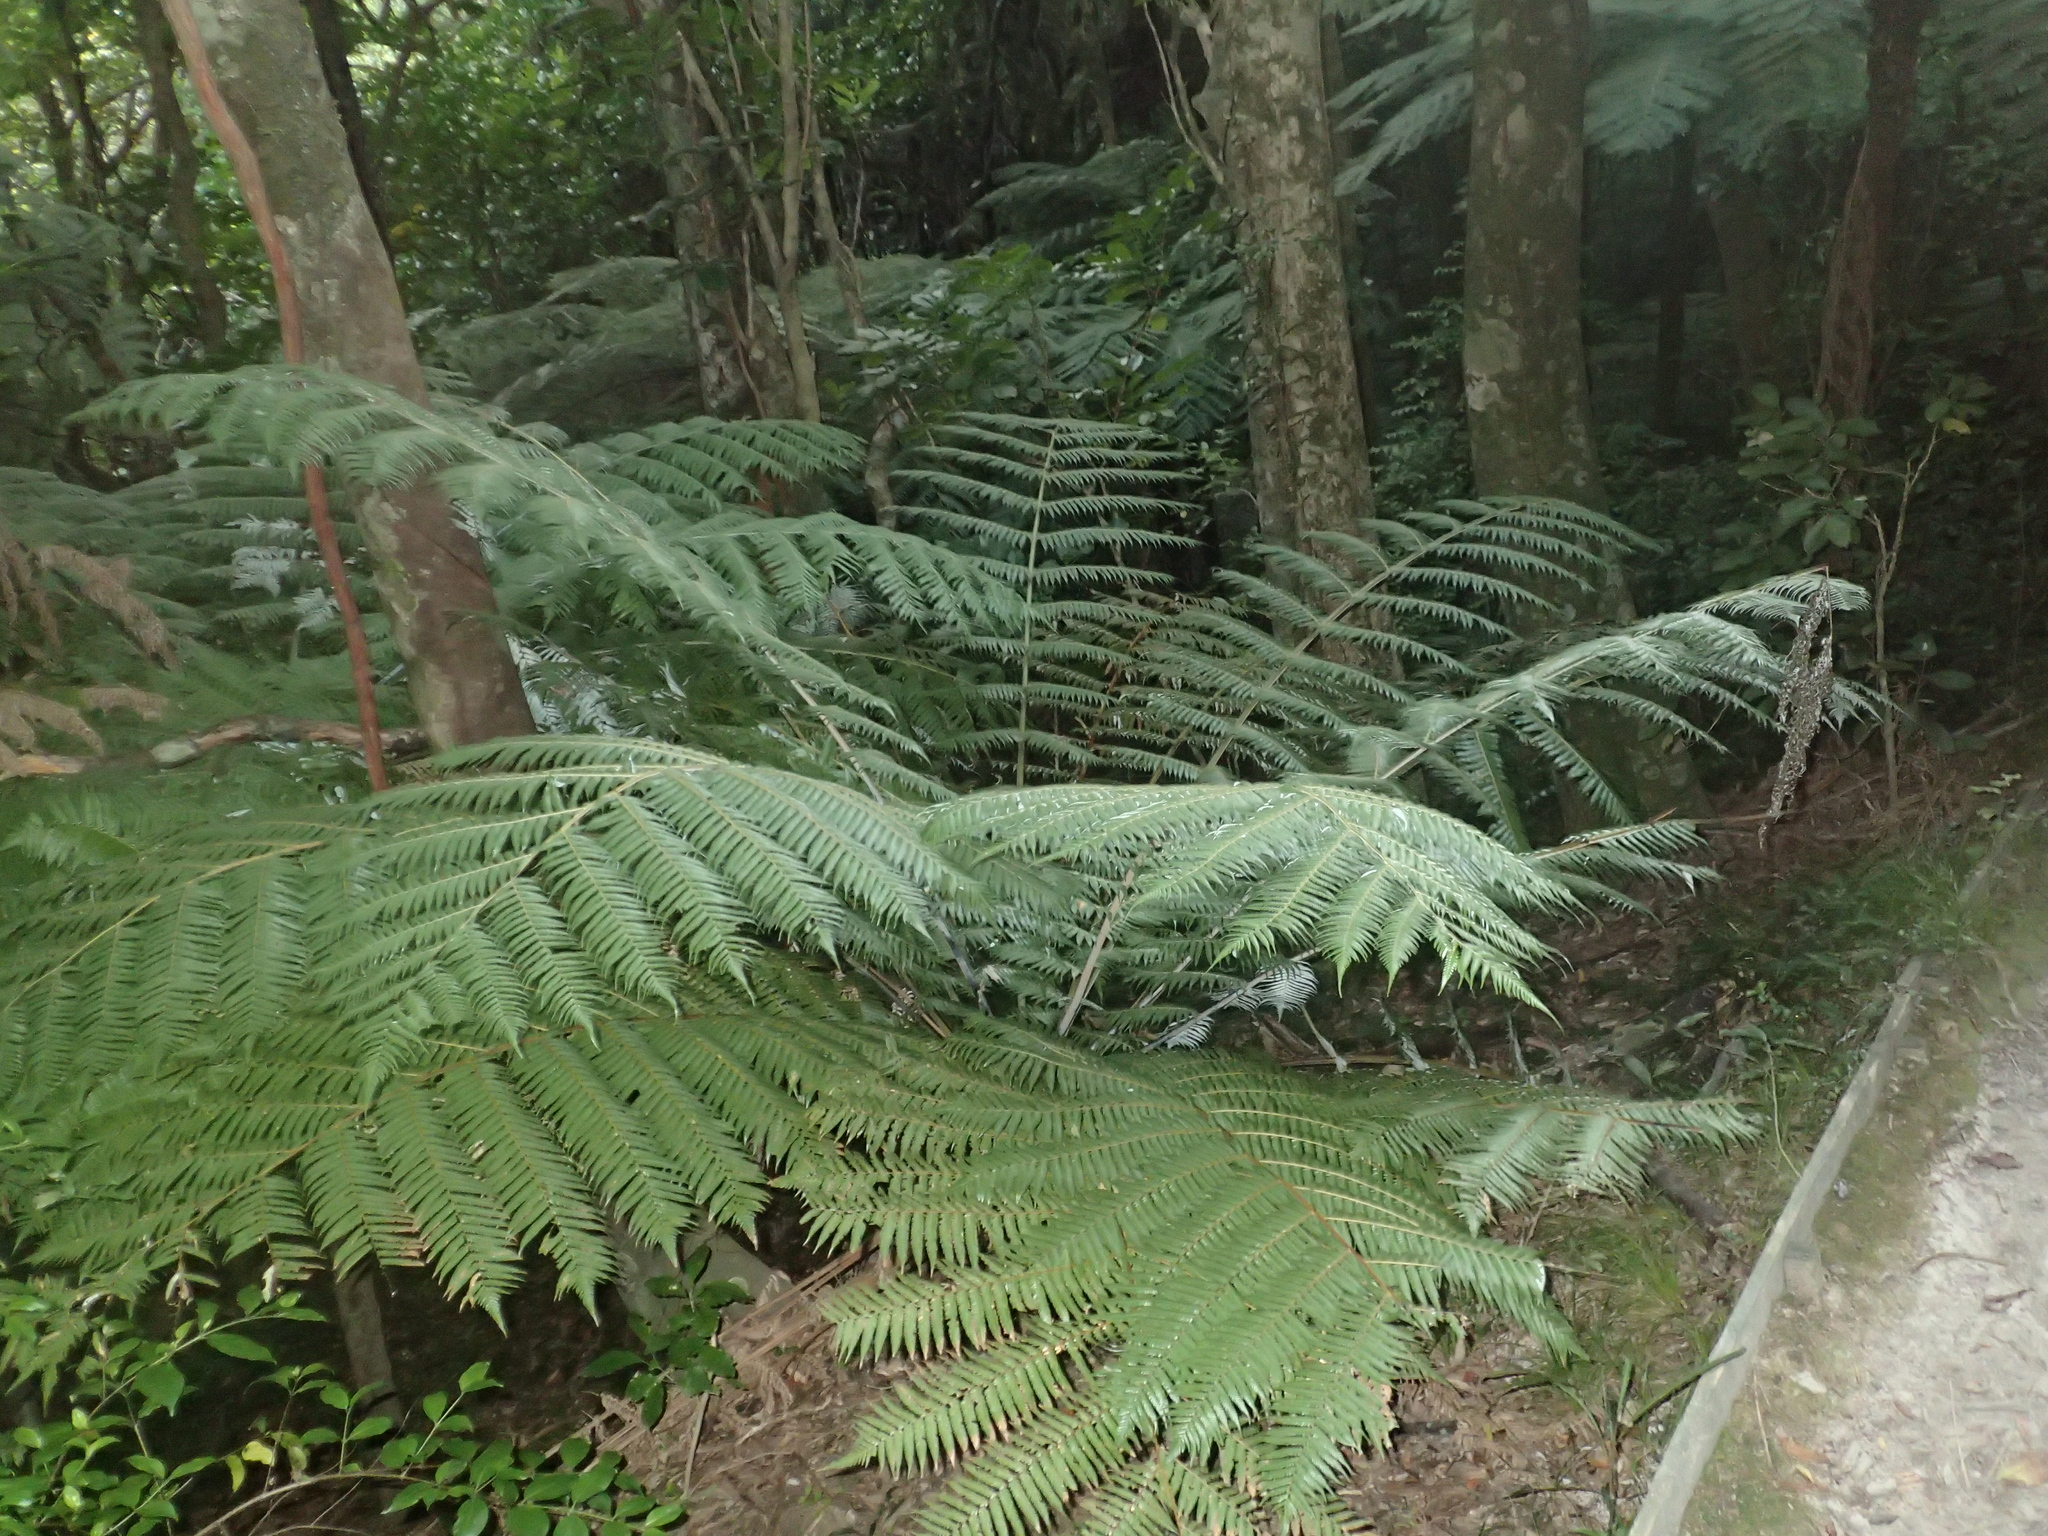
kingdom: Plantae
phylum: Tracheophyta
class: Polypodiopsida
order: Cyatheales
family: Cyatheaceae
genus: Alsophila
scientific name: Alsophila dealbata
